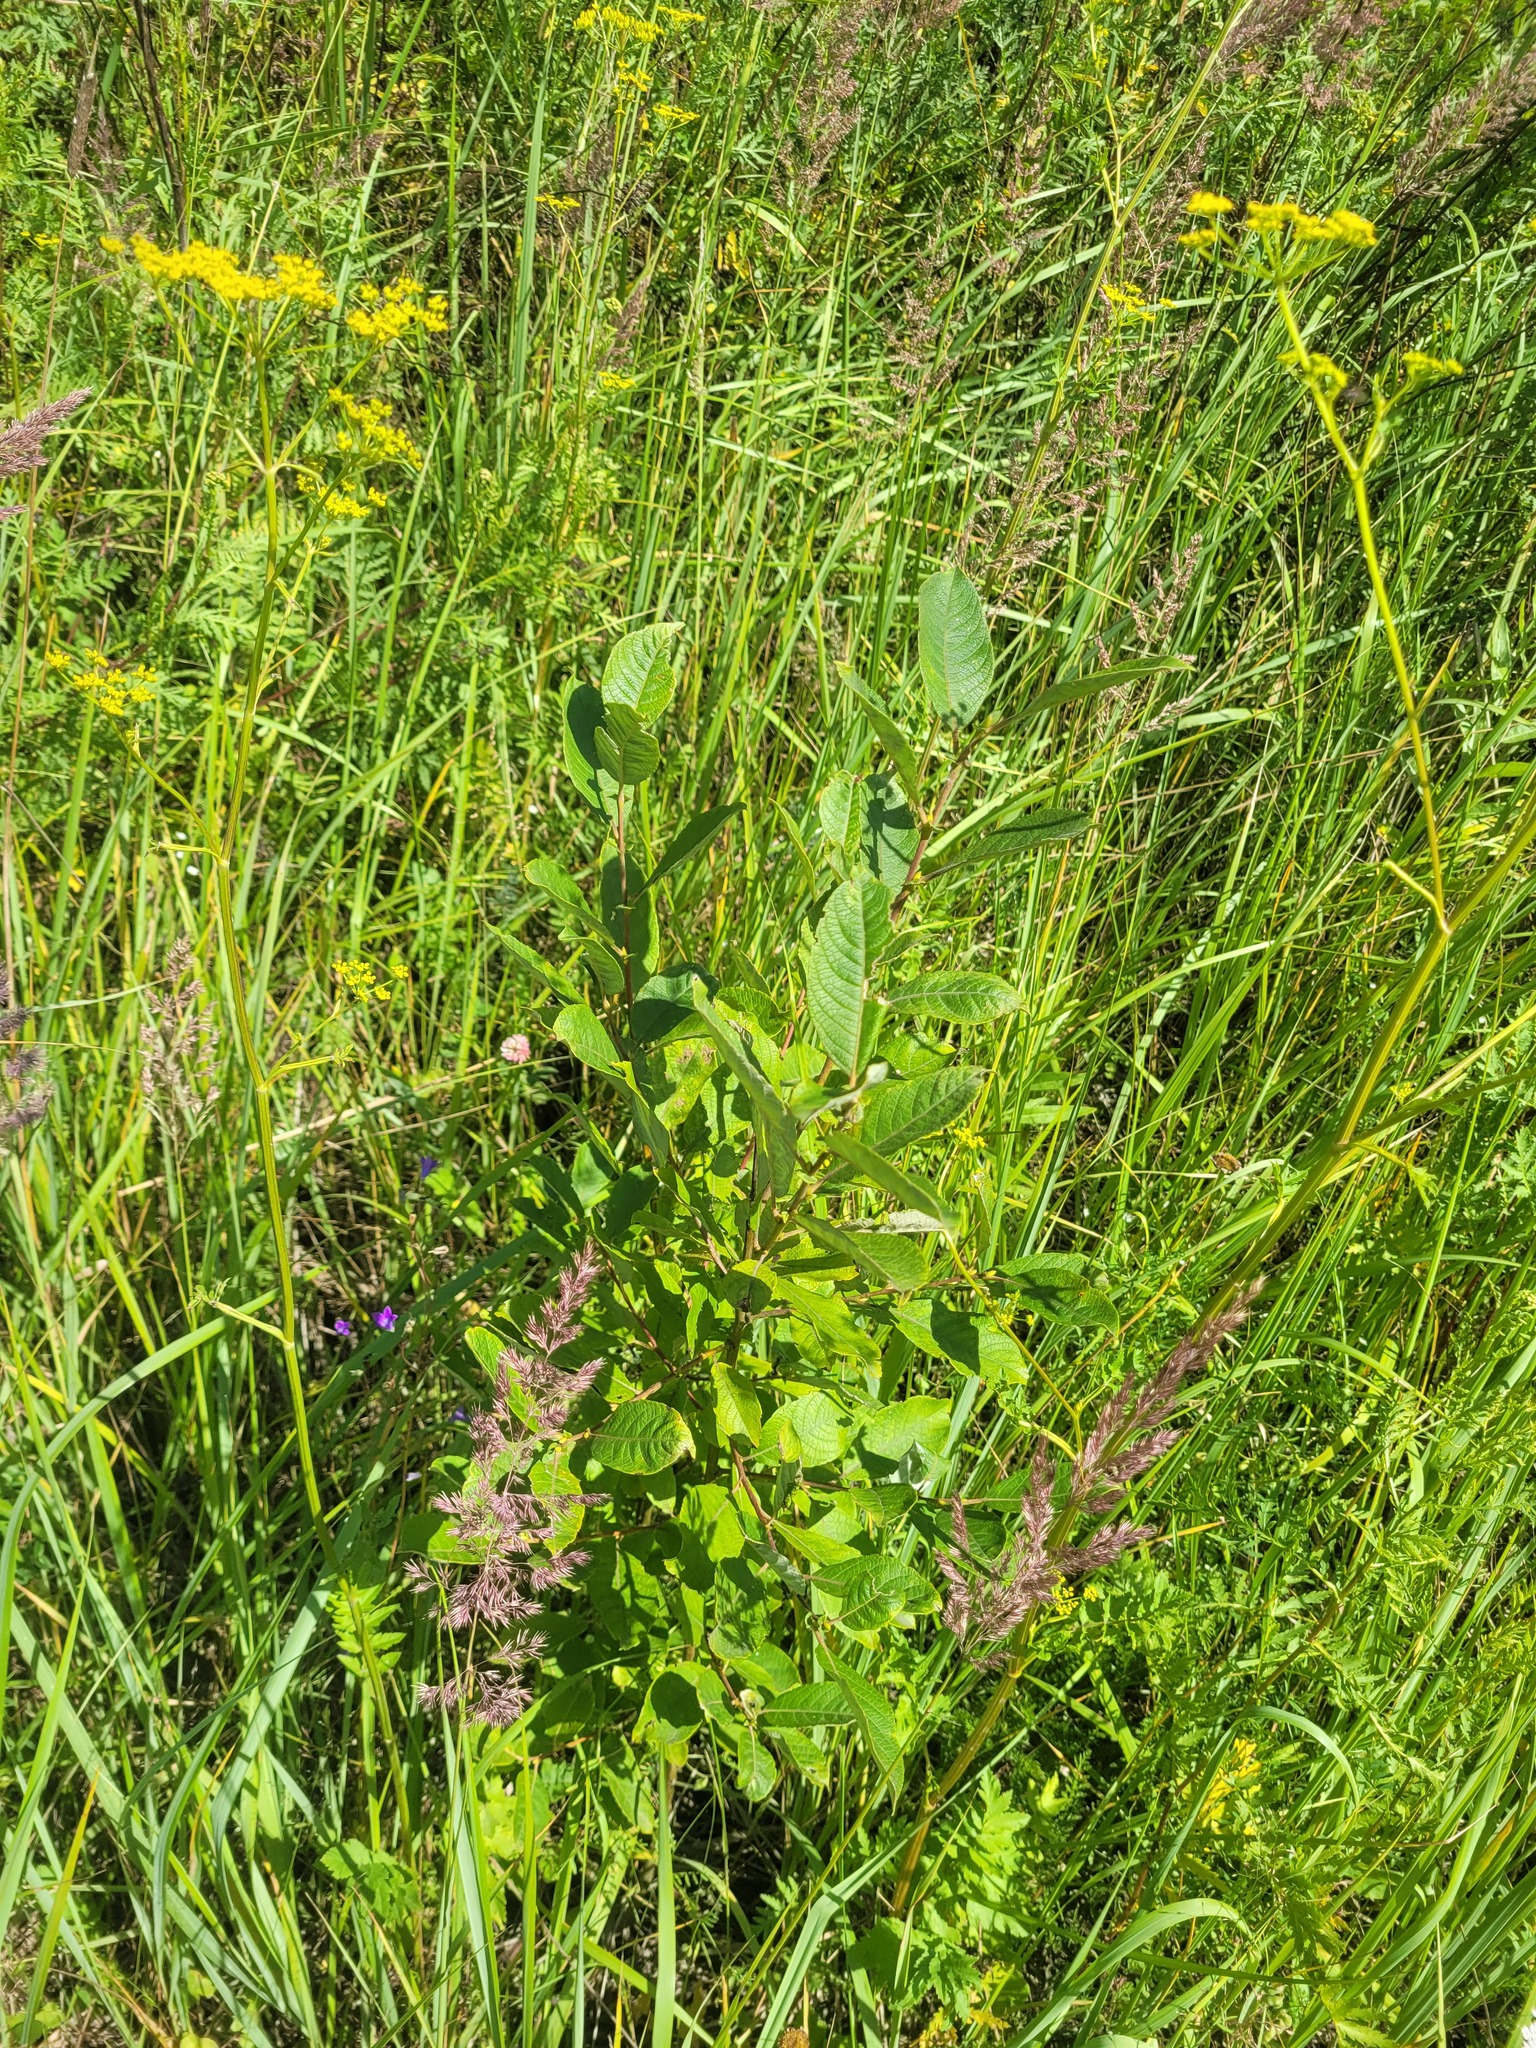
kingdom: Plantae
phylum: Tracheophyta
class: Magnoliopsida
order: Malpighiales
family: Salicaceae
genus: Salix
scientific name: Salix caprea
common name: Goat willow
